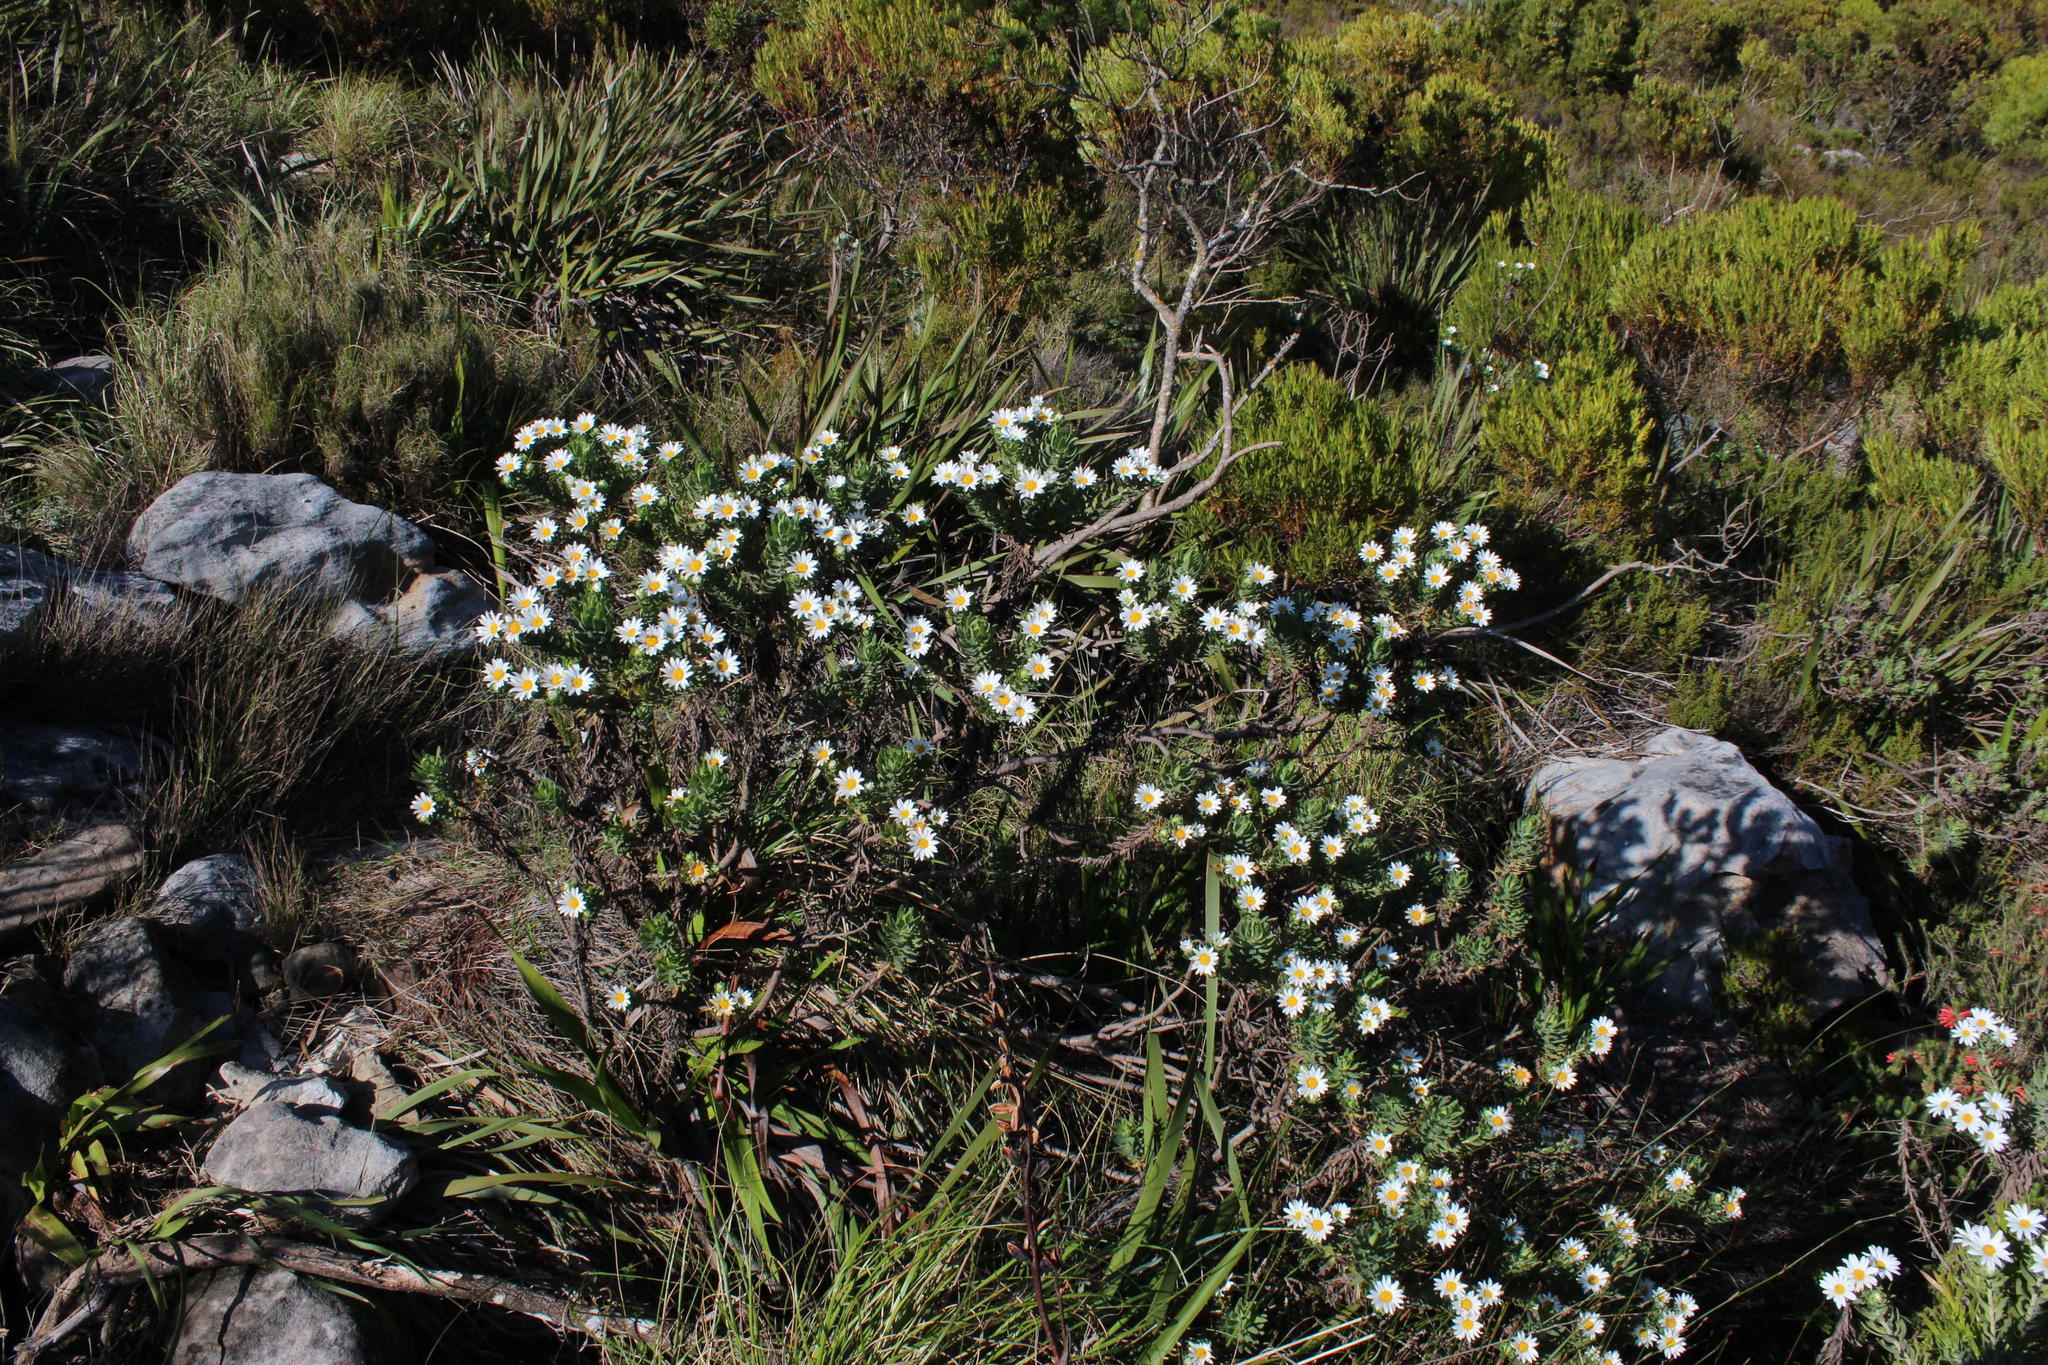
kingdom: Plantae
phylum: Tracheophyta
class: Magnoliopsida
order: Asterales
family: Asteraceae
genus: Osmitopsis
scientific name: Osmitopsis asteriscoides
